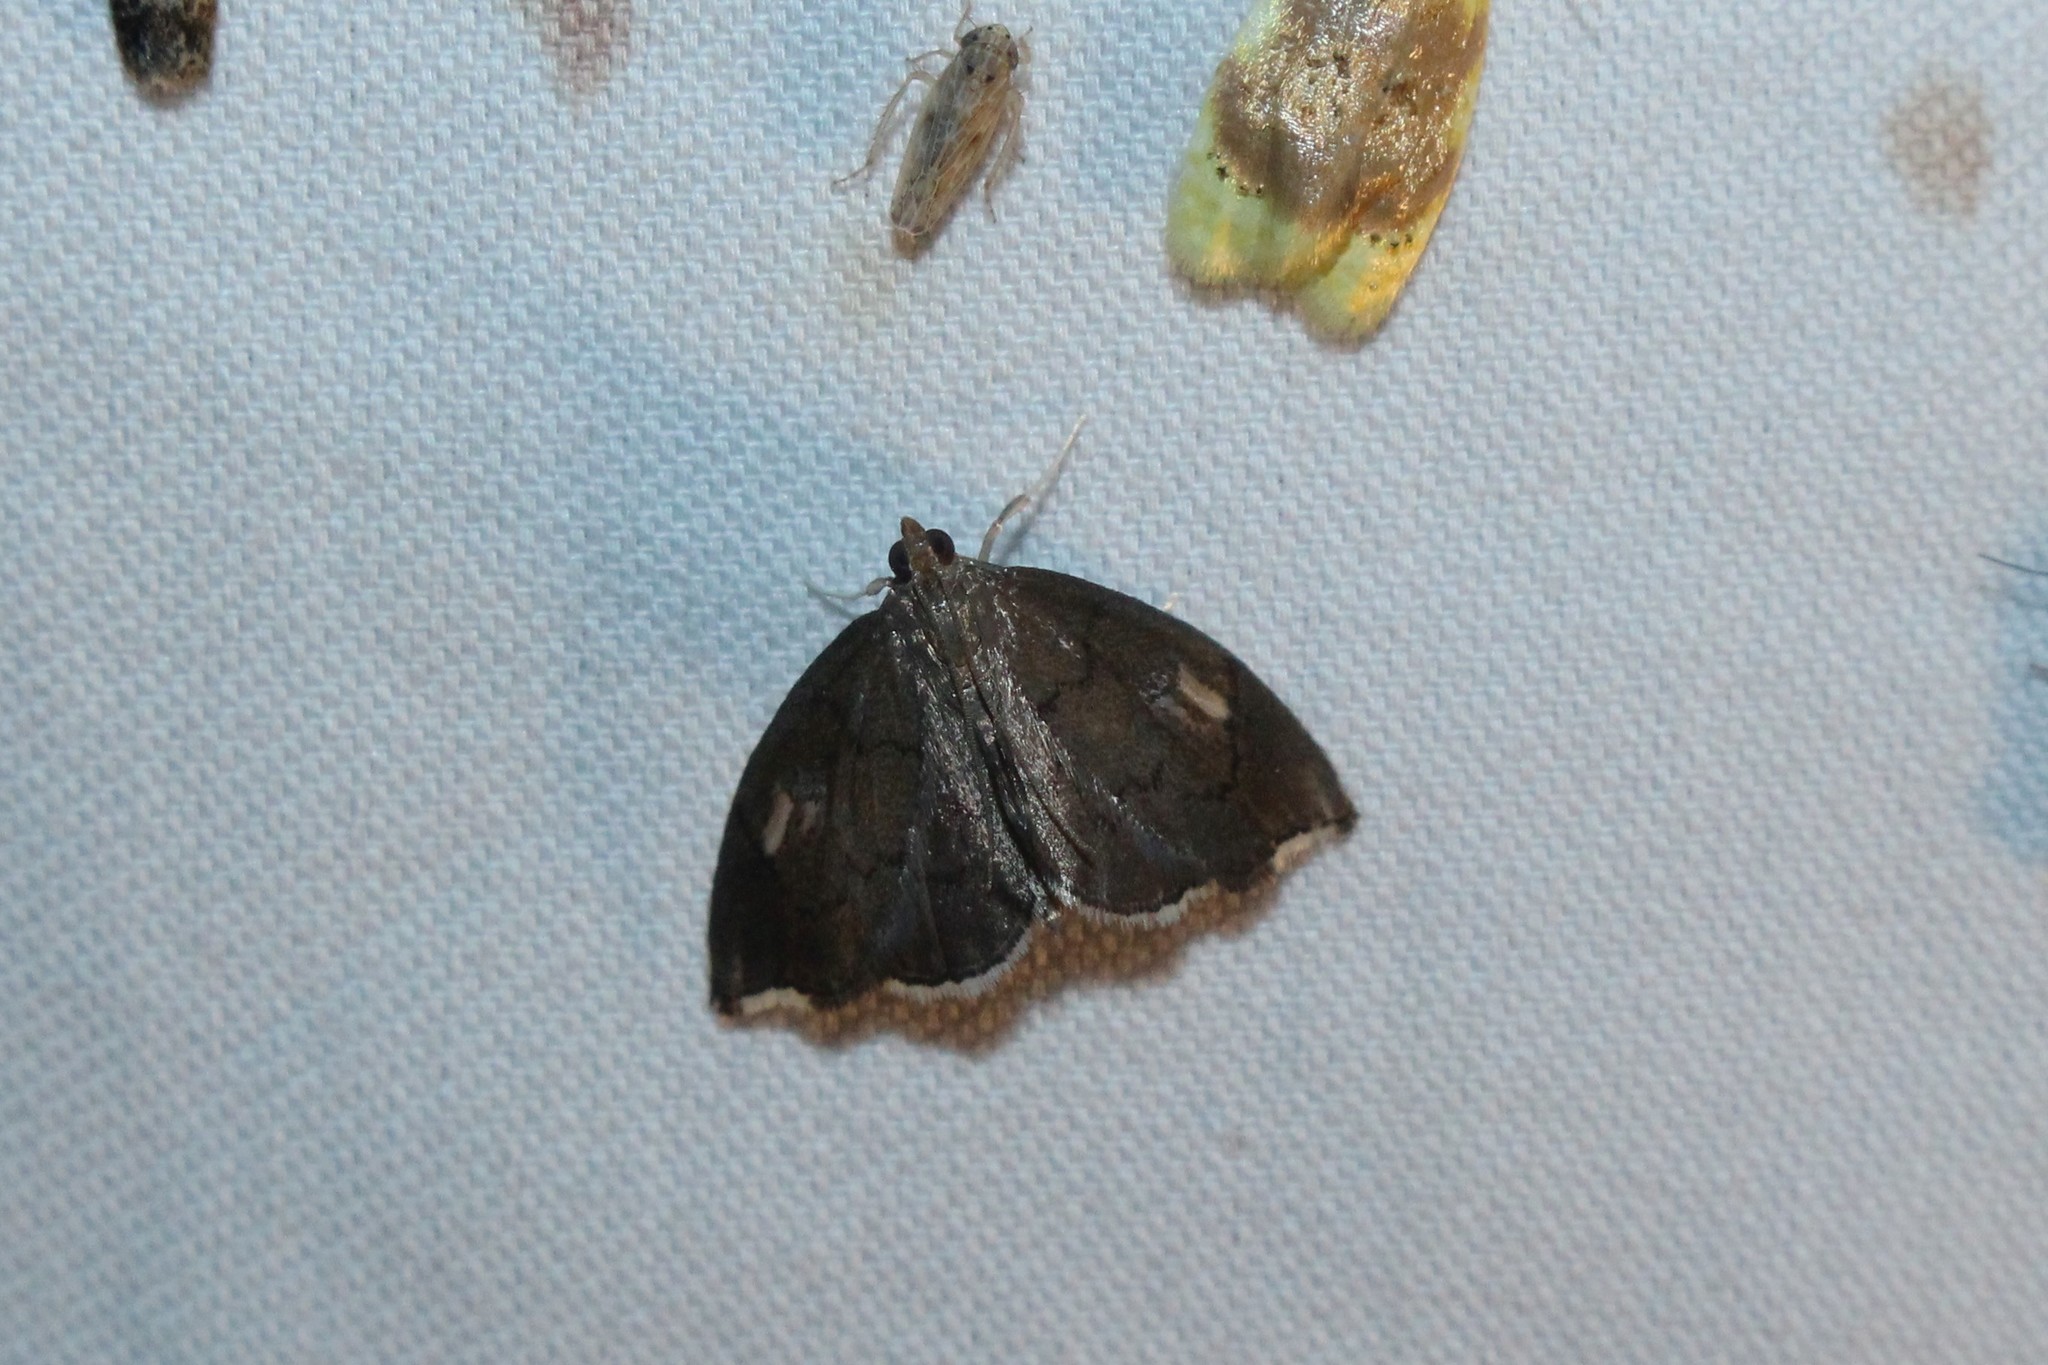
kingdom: Animalia
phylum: Arthropoda
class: Insecta
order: Lepidoptera
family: Crambidae
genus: Perispasta
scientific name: Perispasta caeculalis
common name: Titian peale's moth
